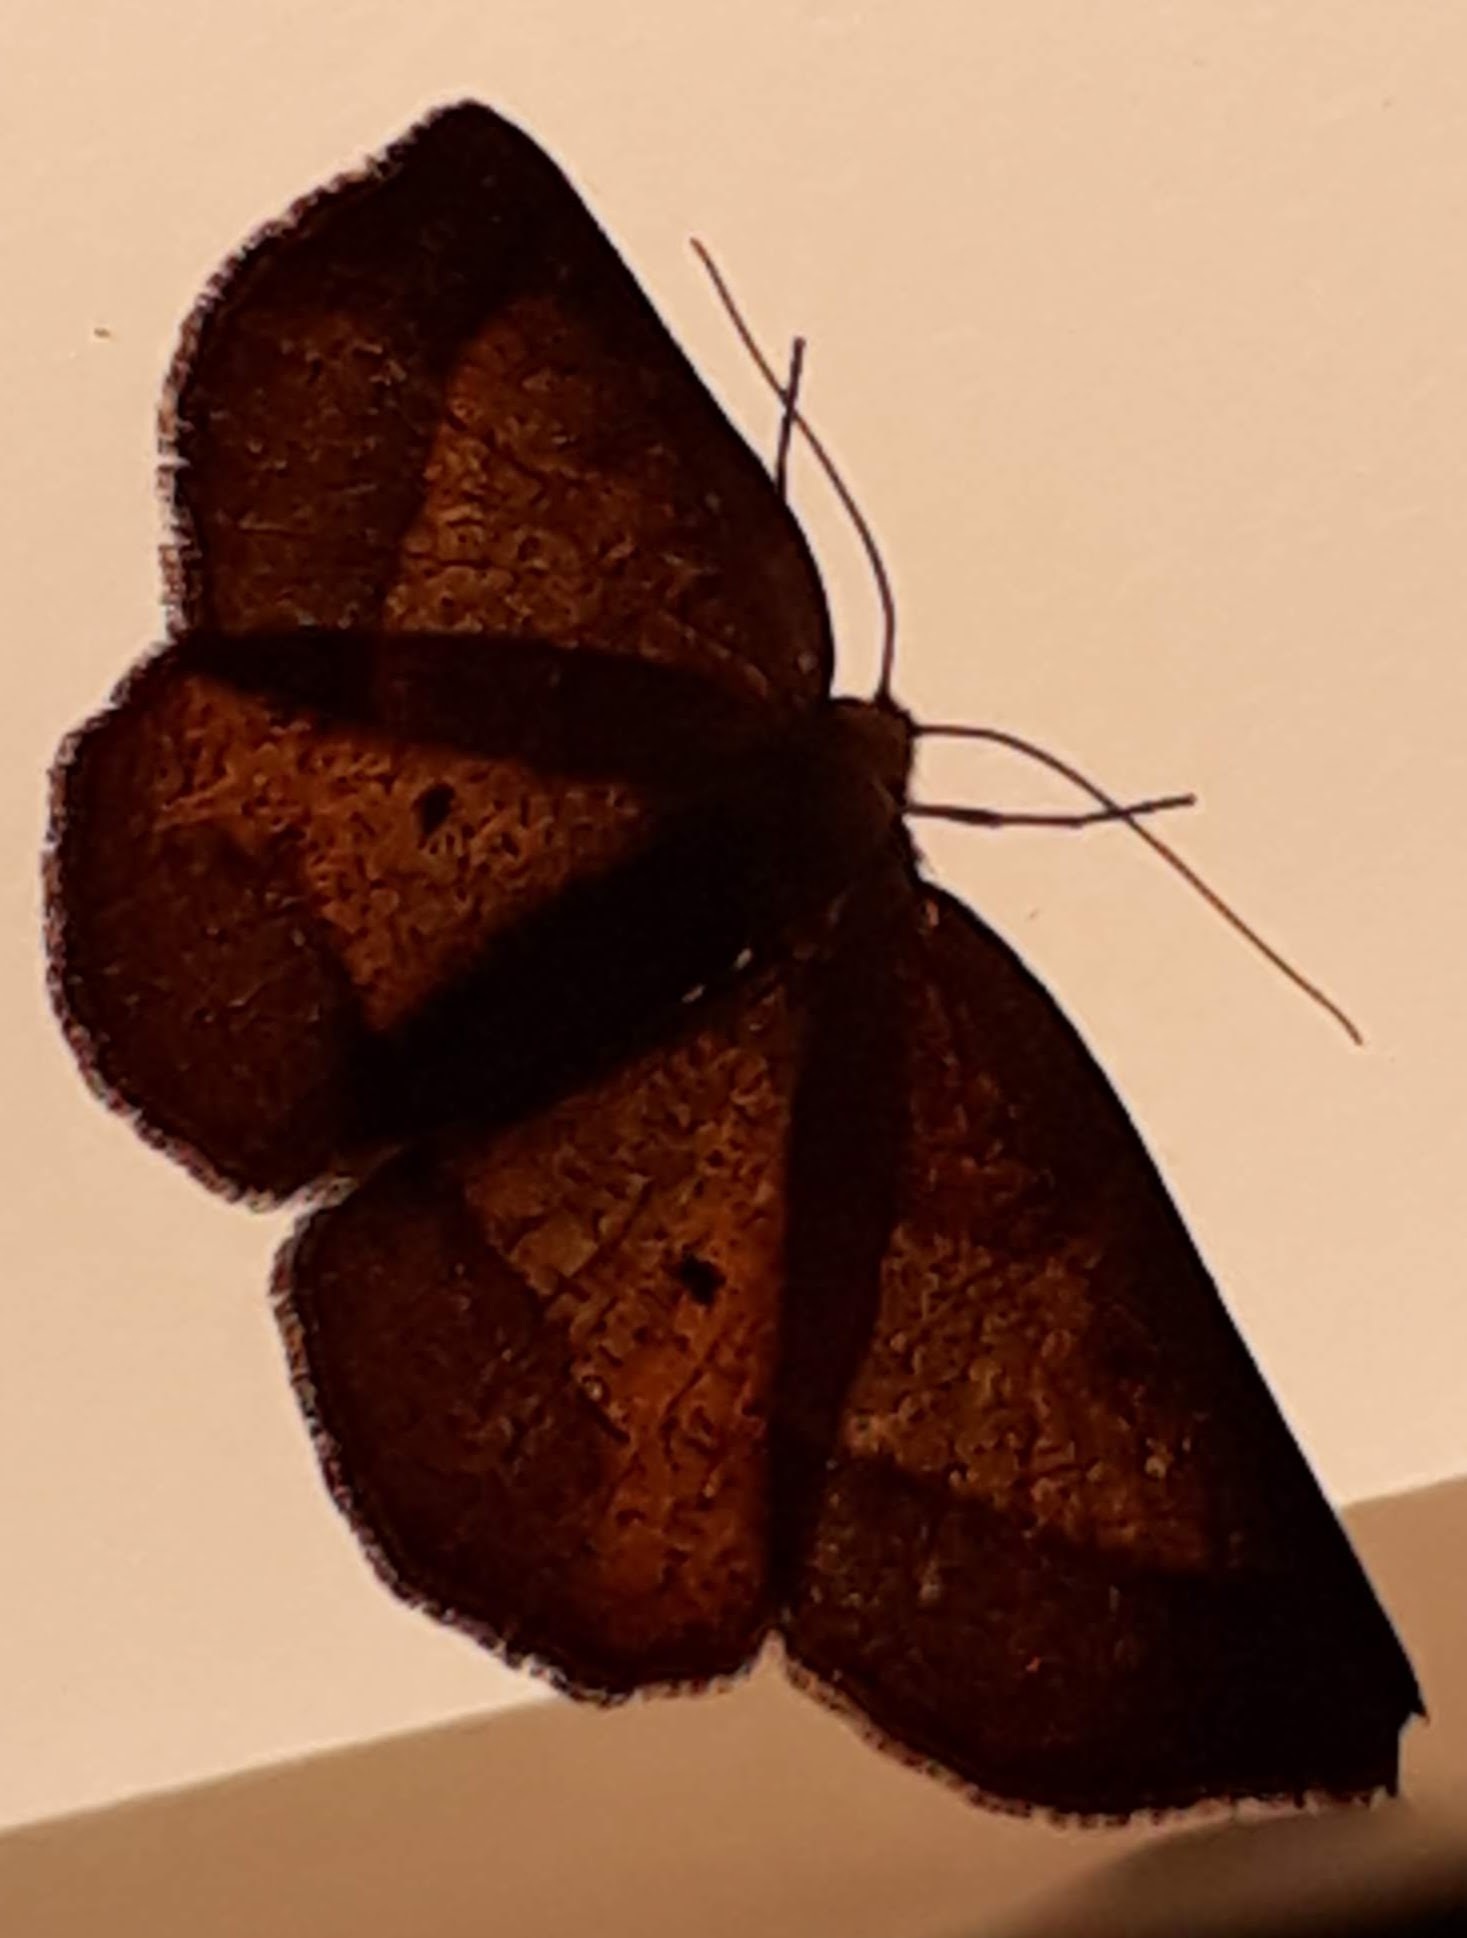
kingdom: Animalia
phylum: Arthropoda
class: Insecta
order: Lepidoptera
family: Geometridae
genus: Metarranthis
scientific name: Metarranthis obfirmaria
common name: Yellow-washed metarranthis
